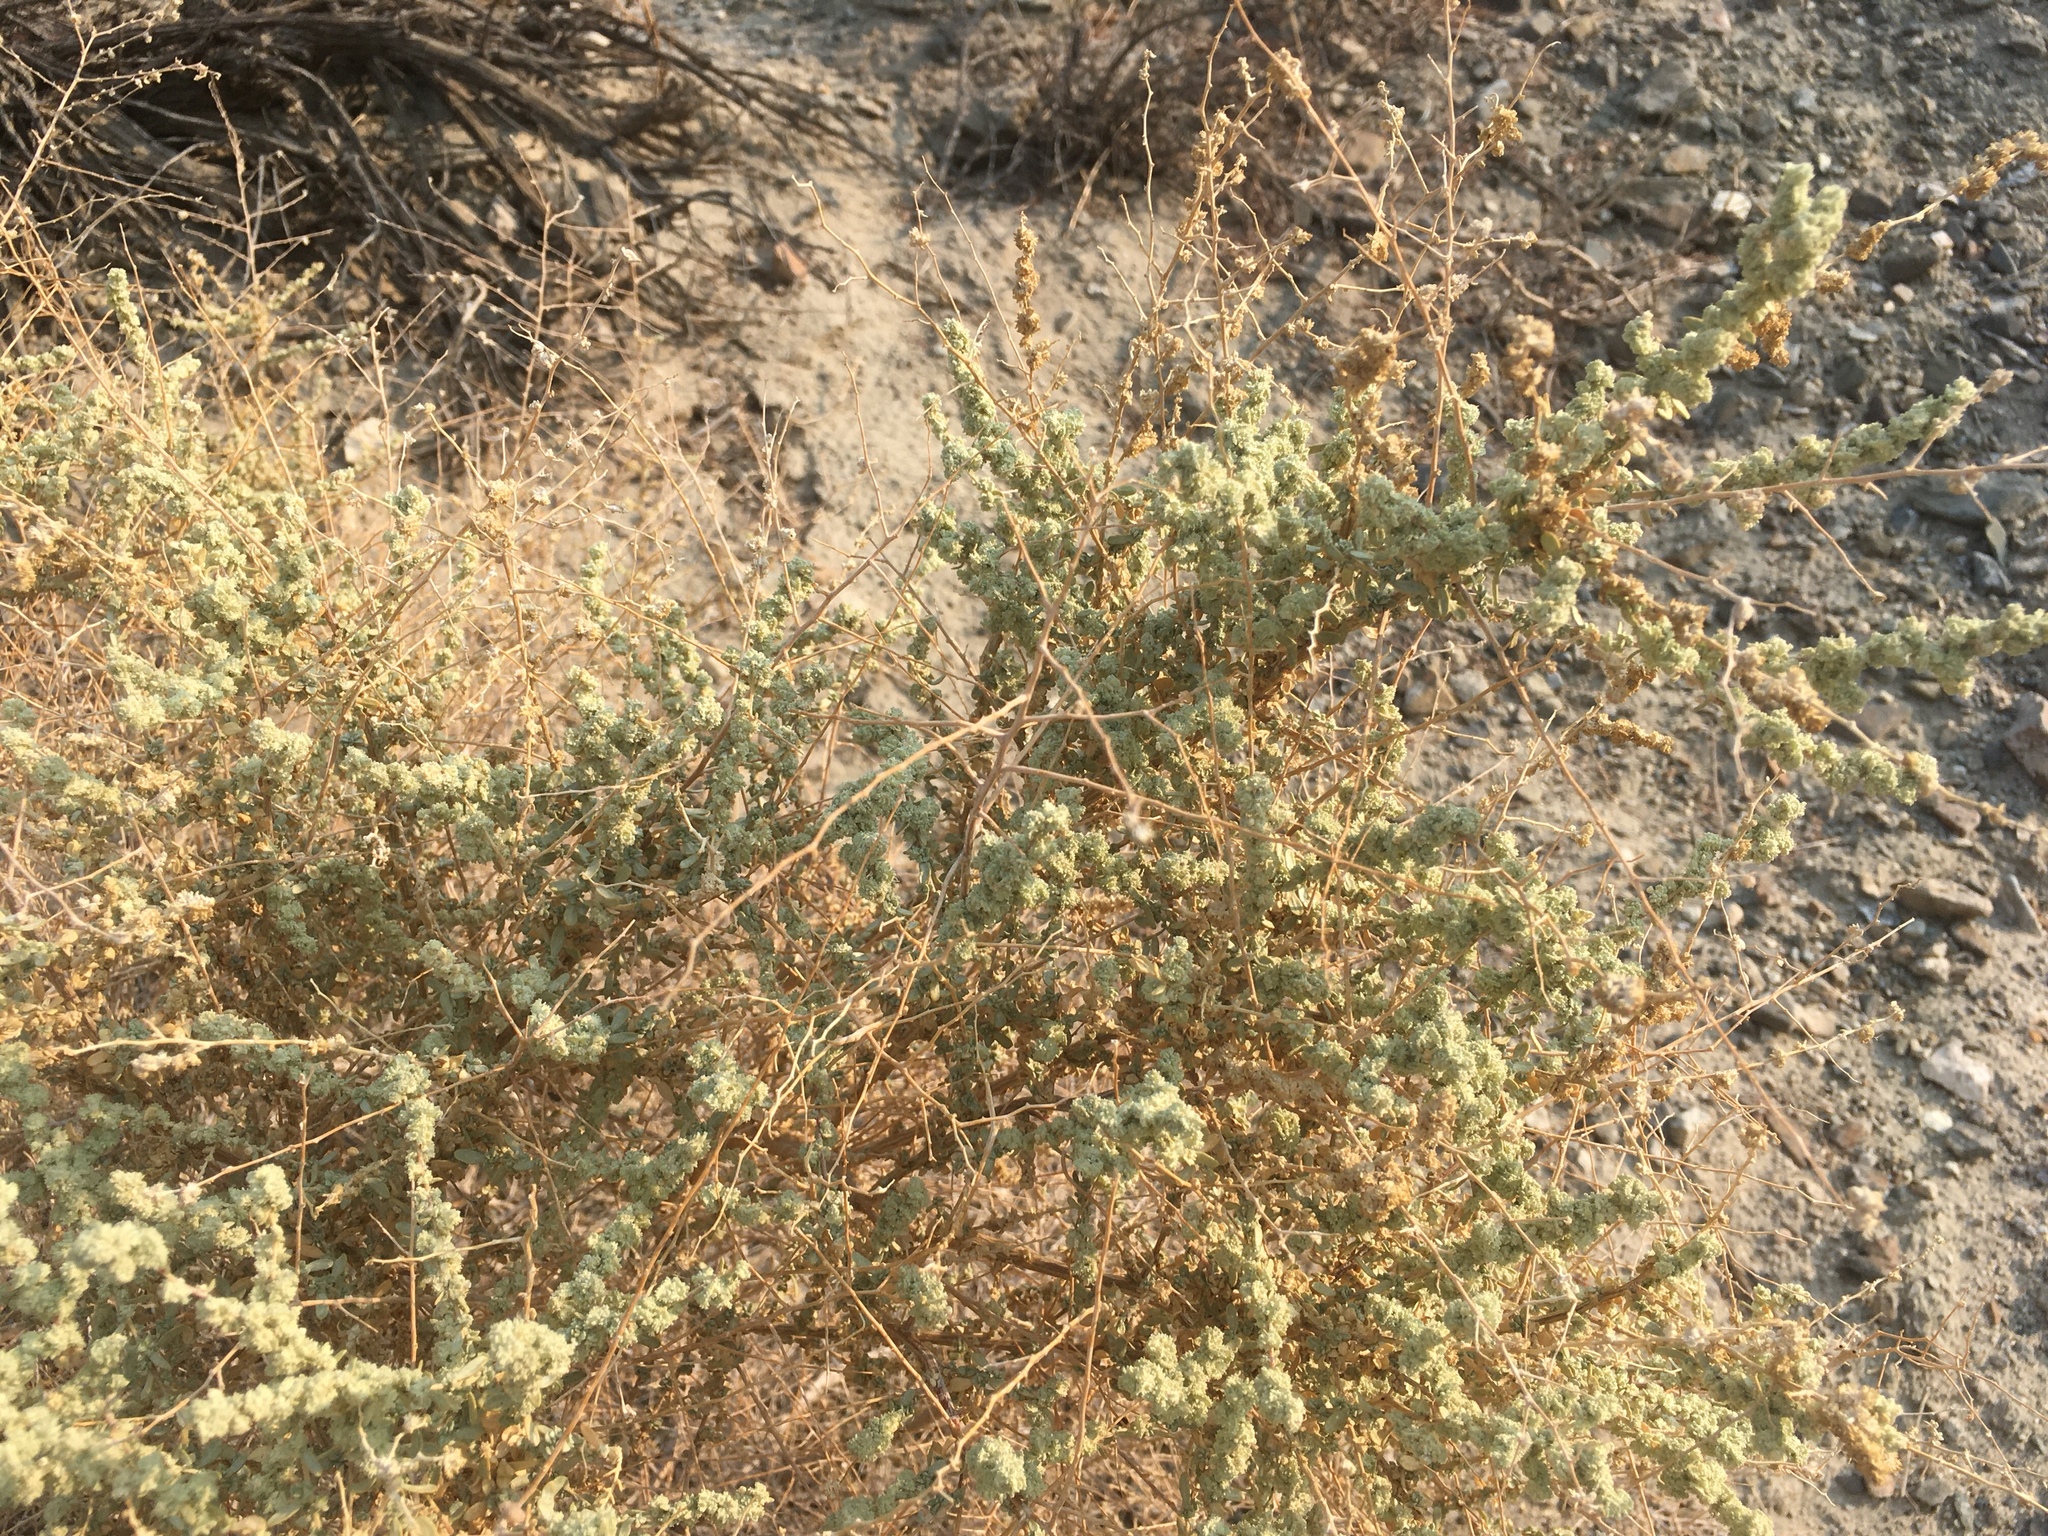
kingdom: Plantae
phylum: Tracheophyta
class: Magnoliopsida
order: Caryophyllales
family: Amaranthaceae
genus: Atriplex
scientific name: Atriplex polycarpa
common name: Desert saltbush
